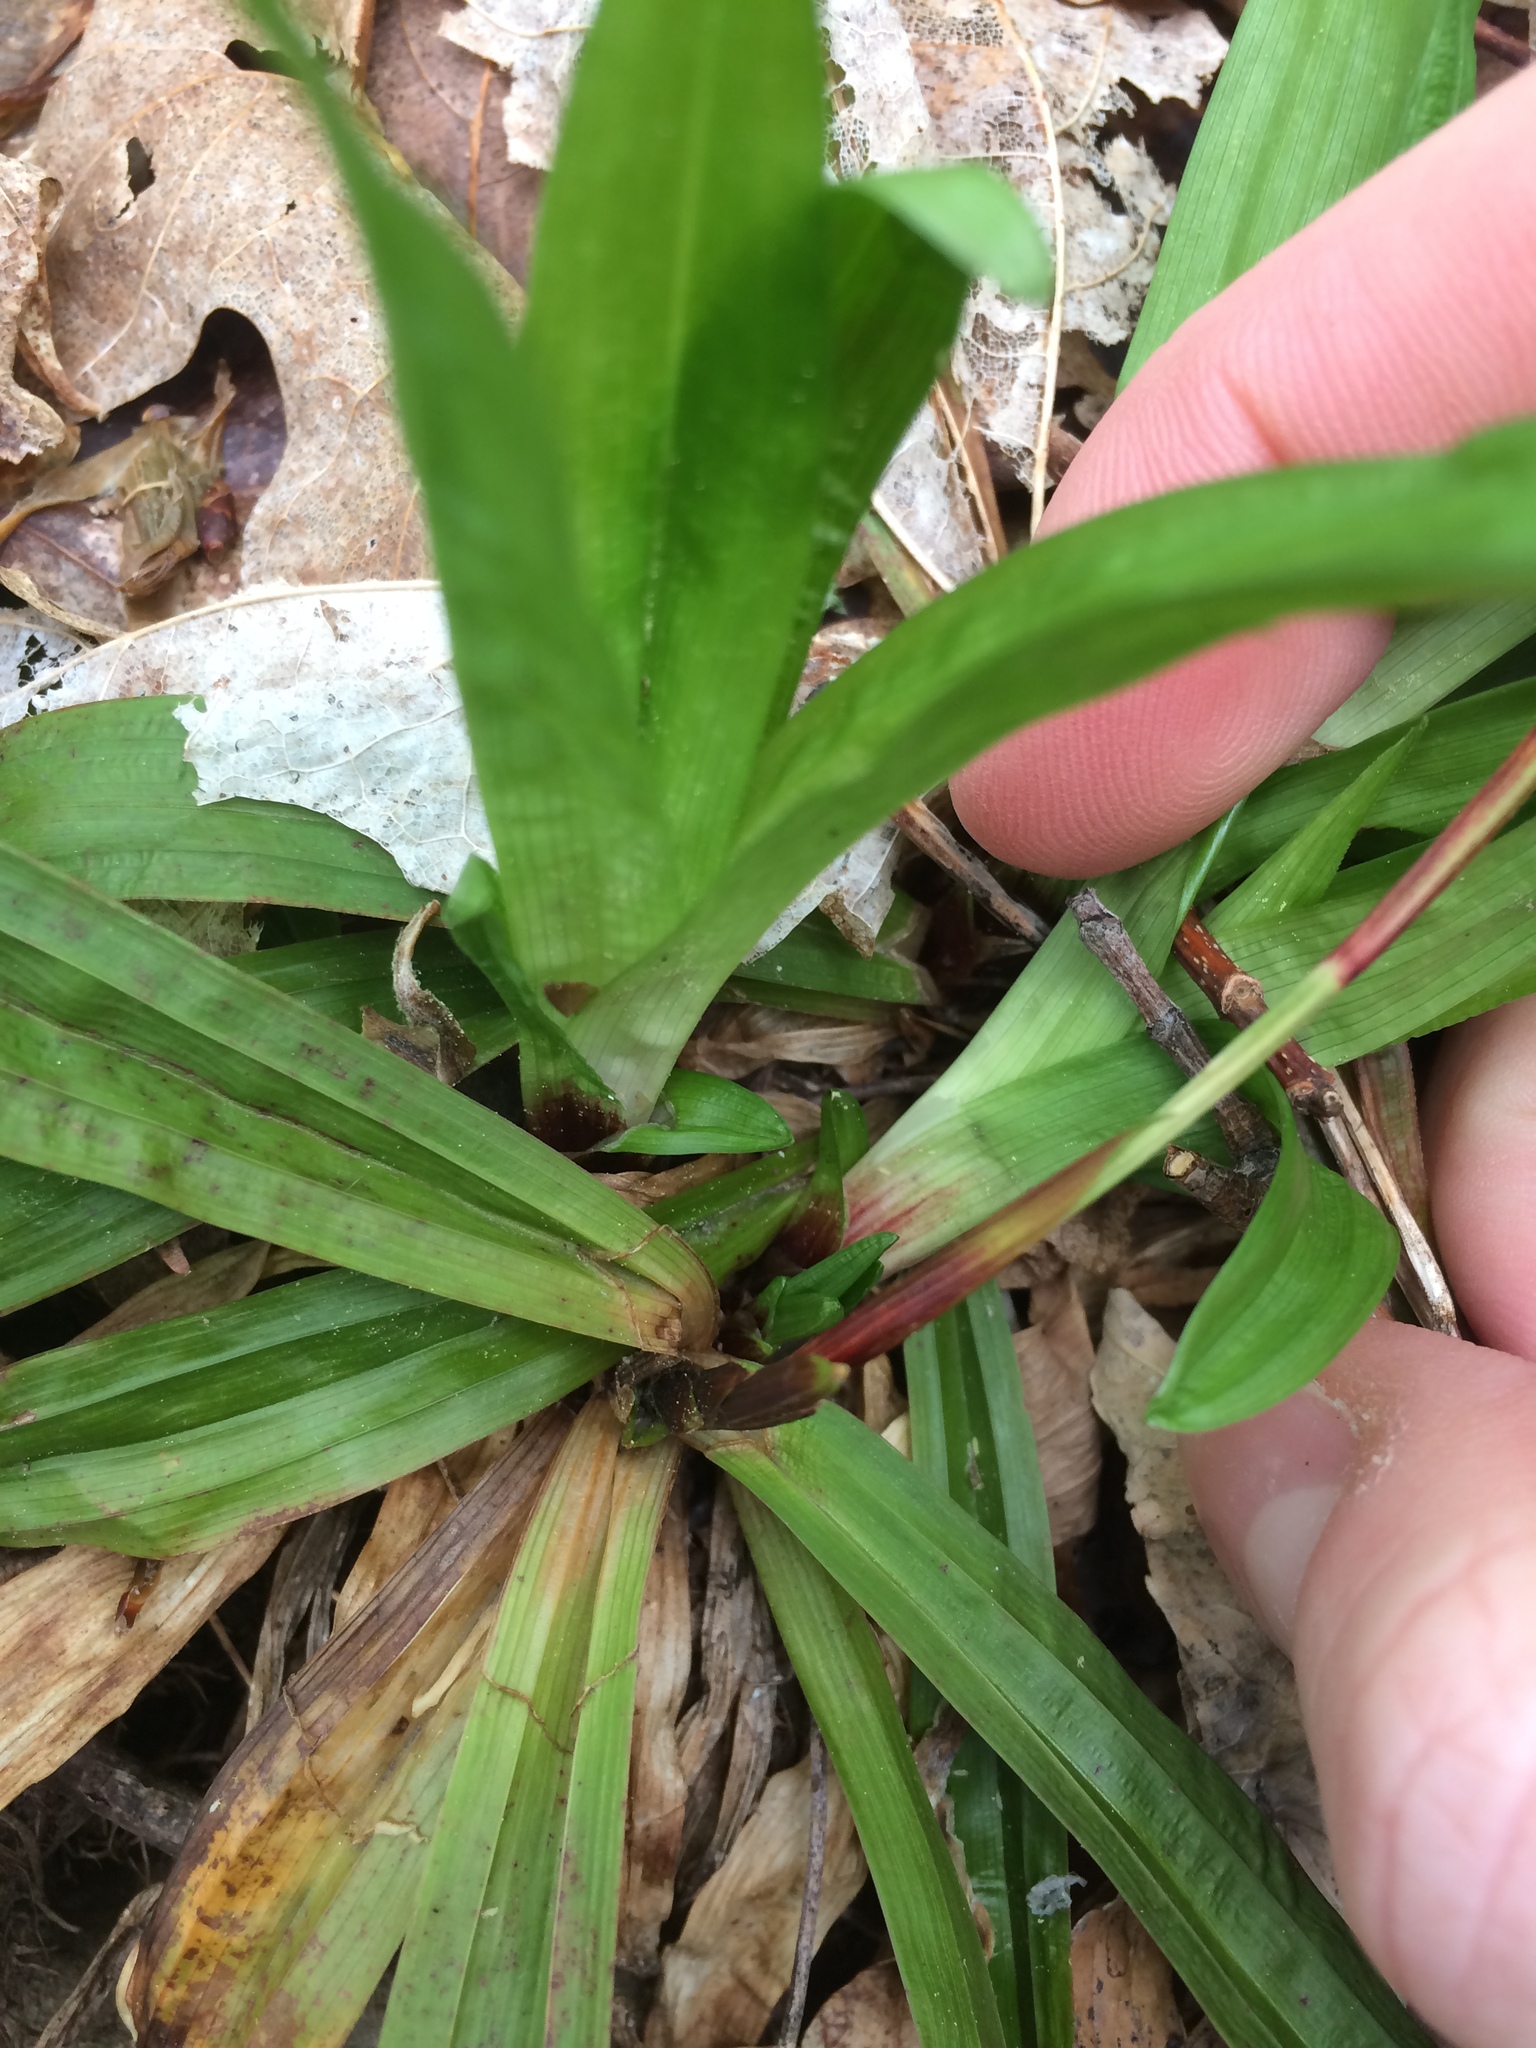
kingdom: Plantae
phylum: Tracheophyta
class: Liliopsida
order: Poales
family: Cyperaceae
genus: Carex
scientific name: Carex plantaginea
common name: Plantain-leaved sedge
